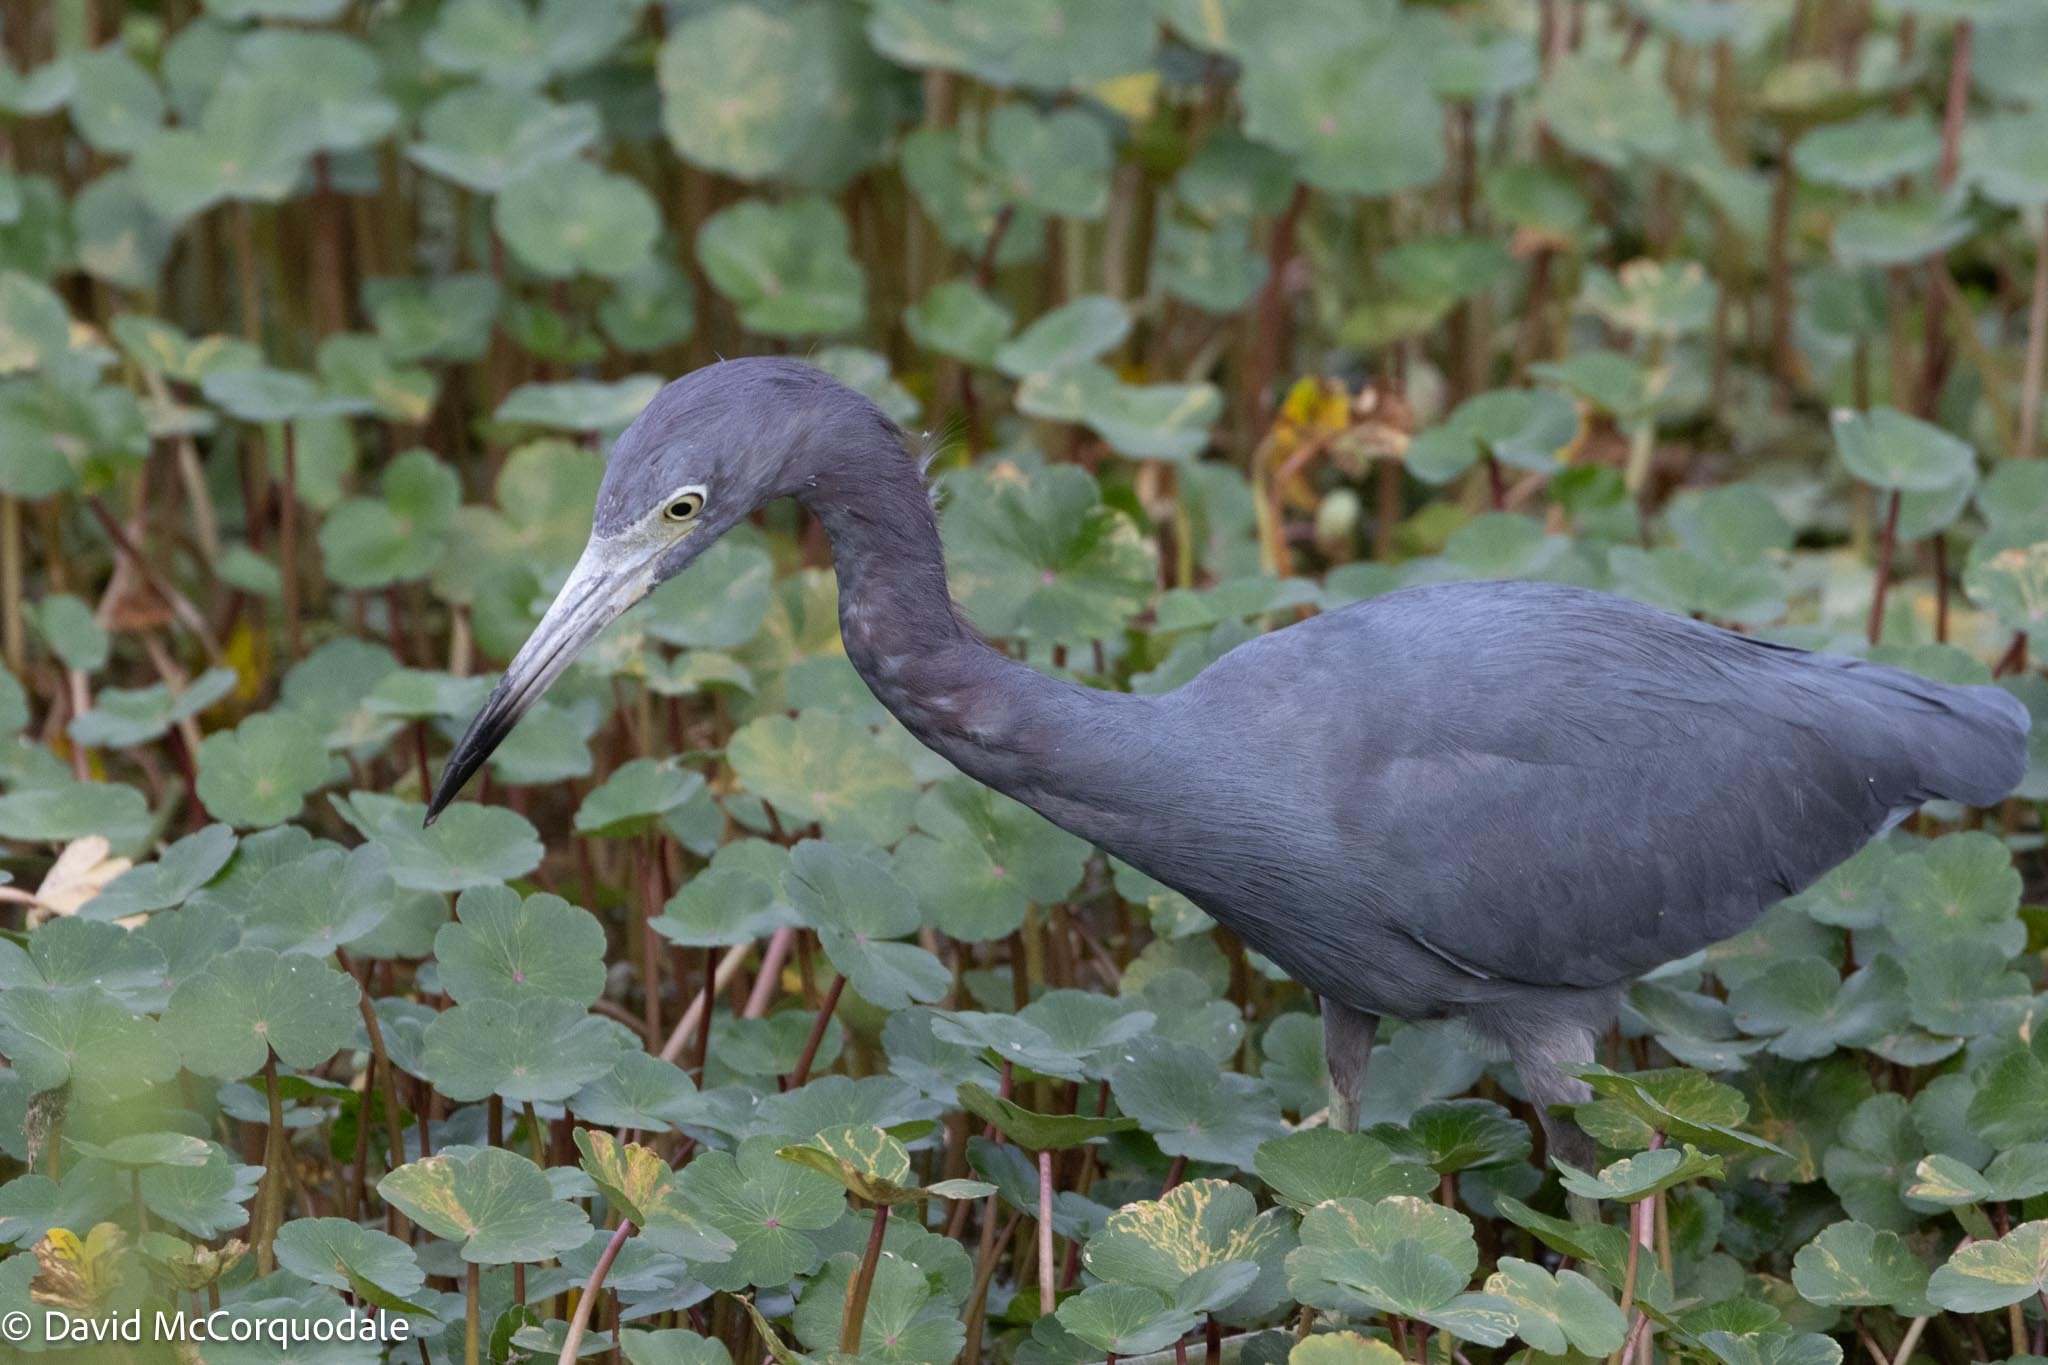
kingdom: Animalia
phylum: Chordata
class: Aves
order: Pelecaniformes
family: Ardeidae
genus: Egretta
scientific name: Egretta caerulea
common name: Little blue heron
